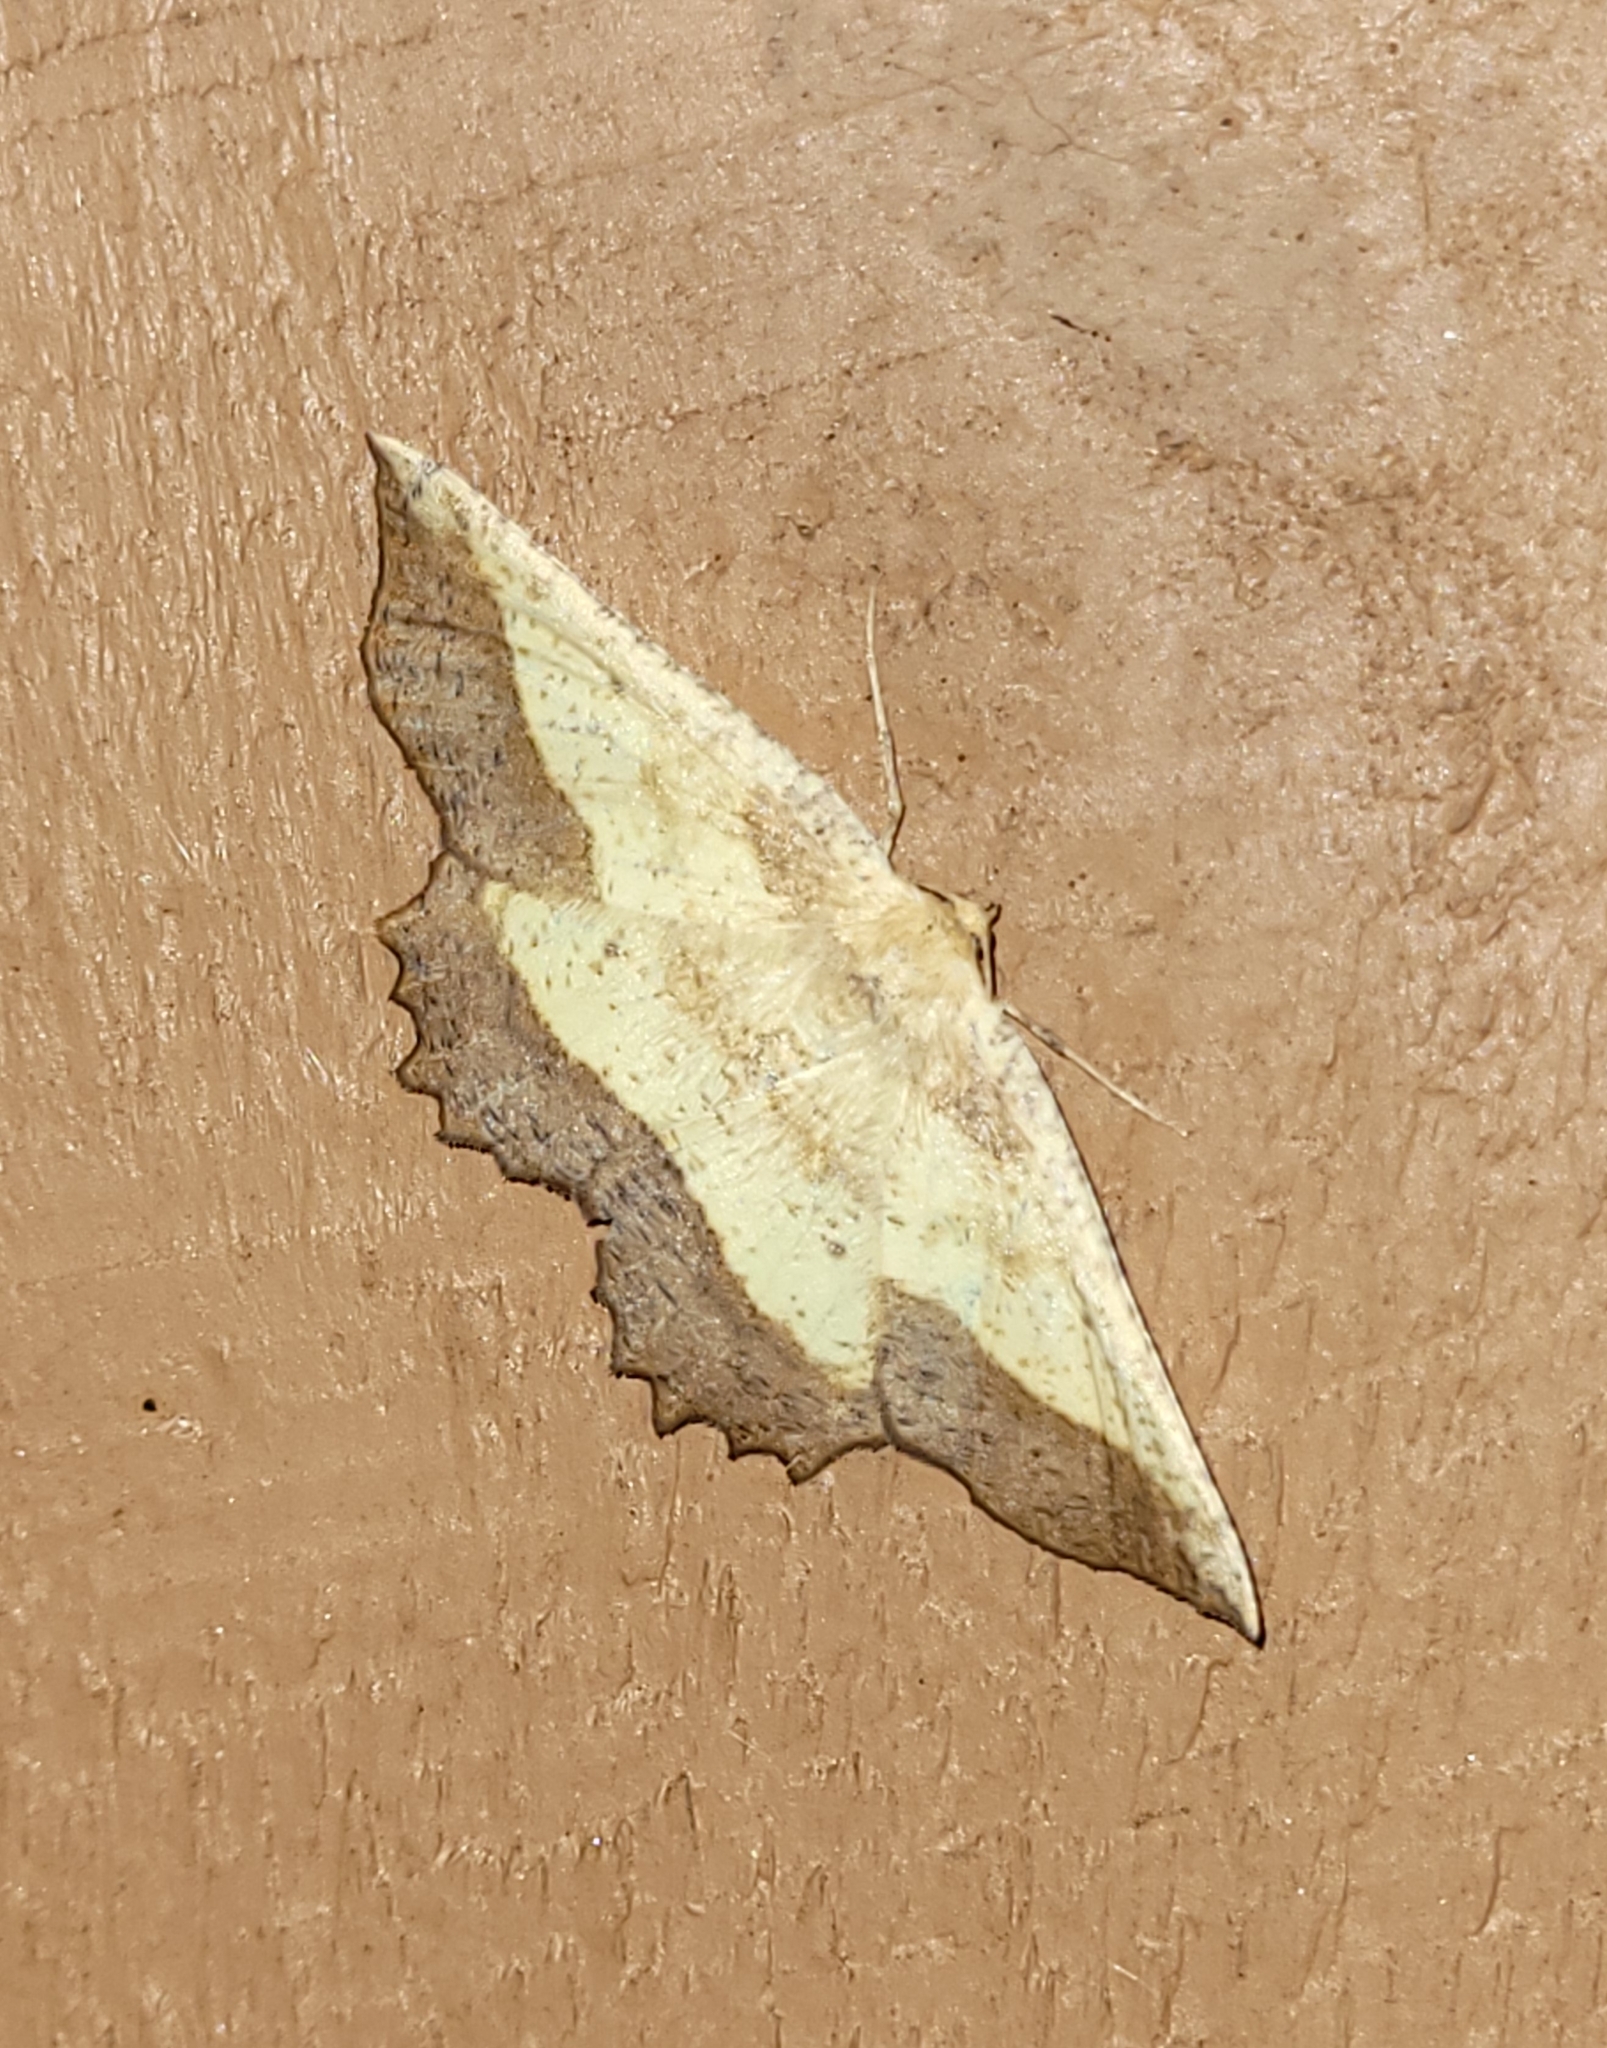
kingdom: Animalia
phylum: Arthropoda
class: Insecta
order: Lepidoptera
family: Geometridae
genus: Euchlaena
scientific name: Euchlaena serrata
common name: Saw wing
